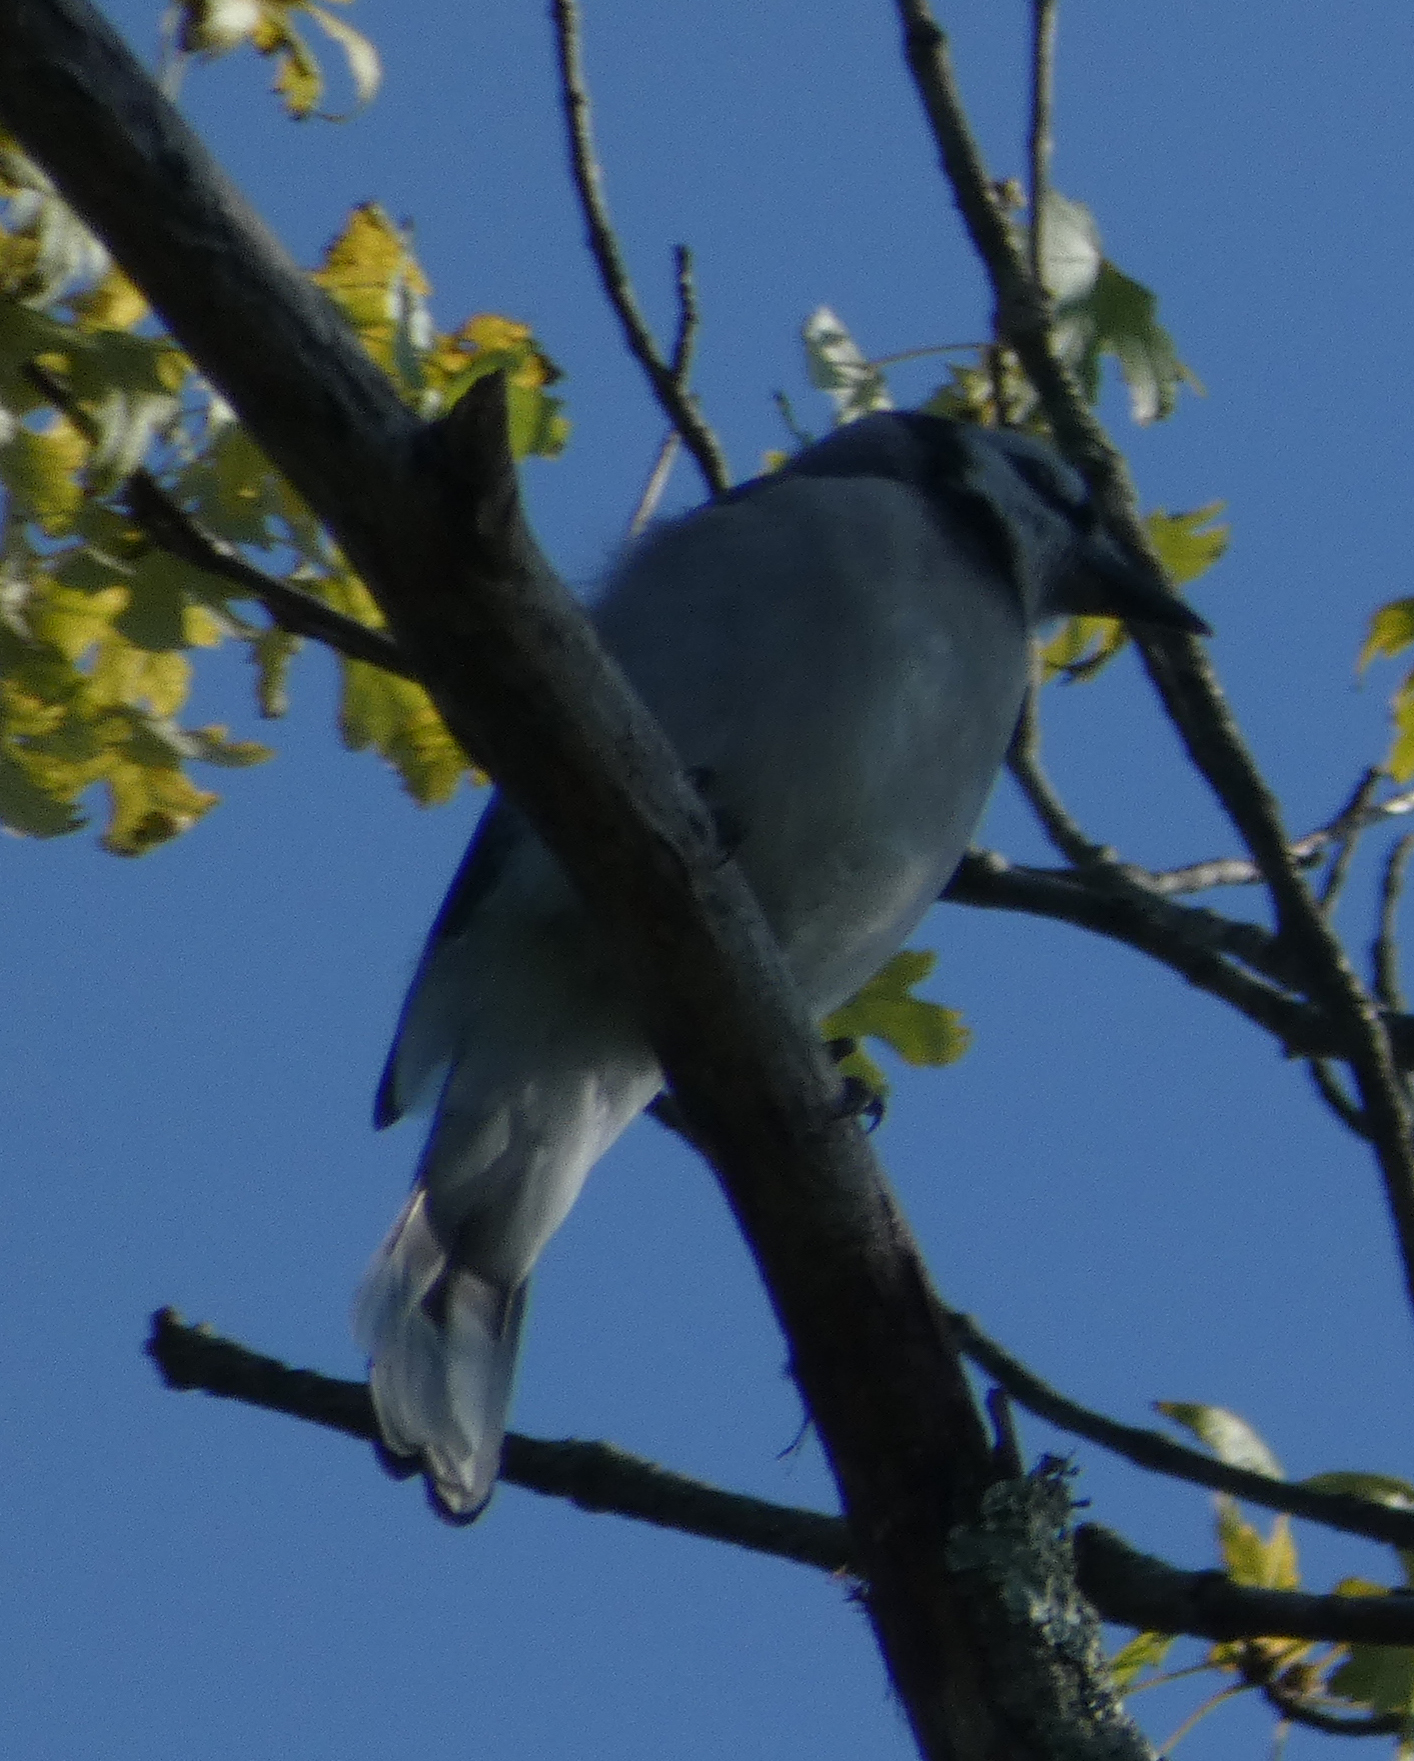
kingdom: Animalia
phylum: Chordata
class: Aves
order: Passeriformes
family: Corvidae
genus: Cyanocitta
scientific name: Cyanocitta cristata
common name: Blue jay
